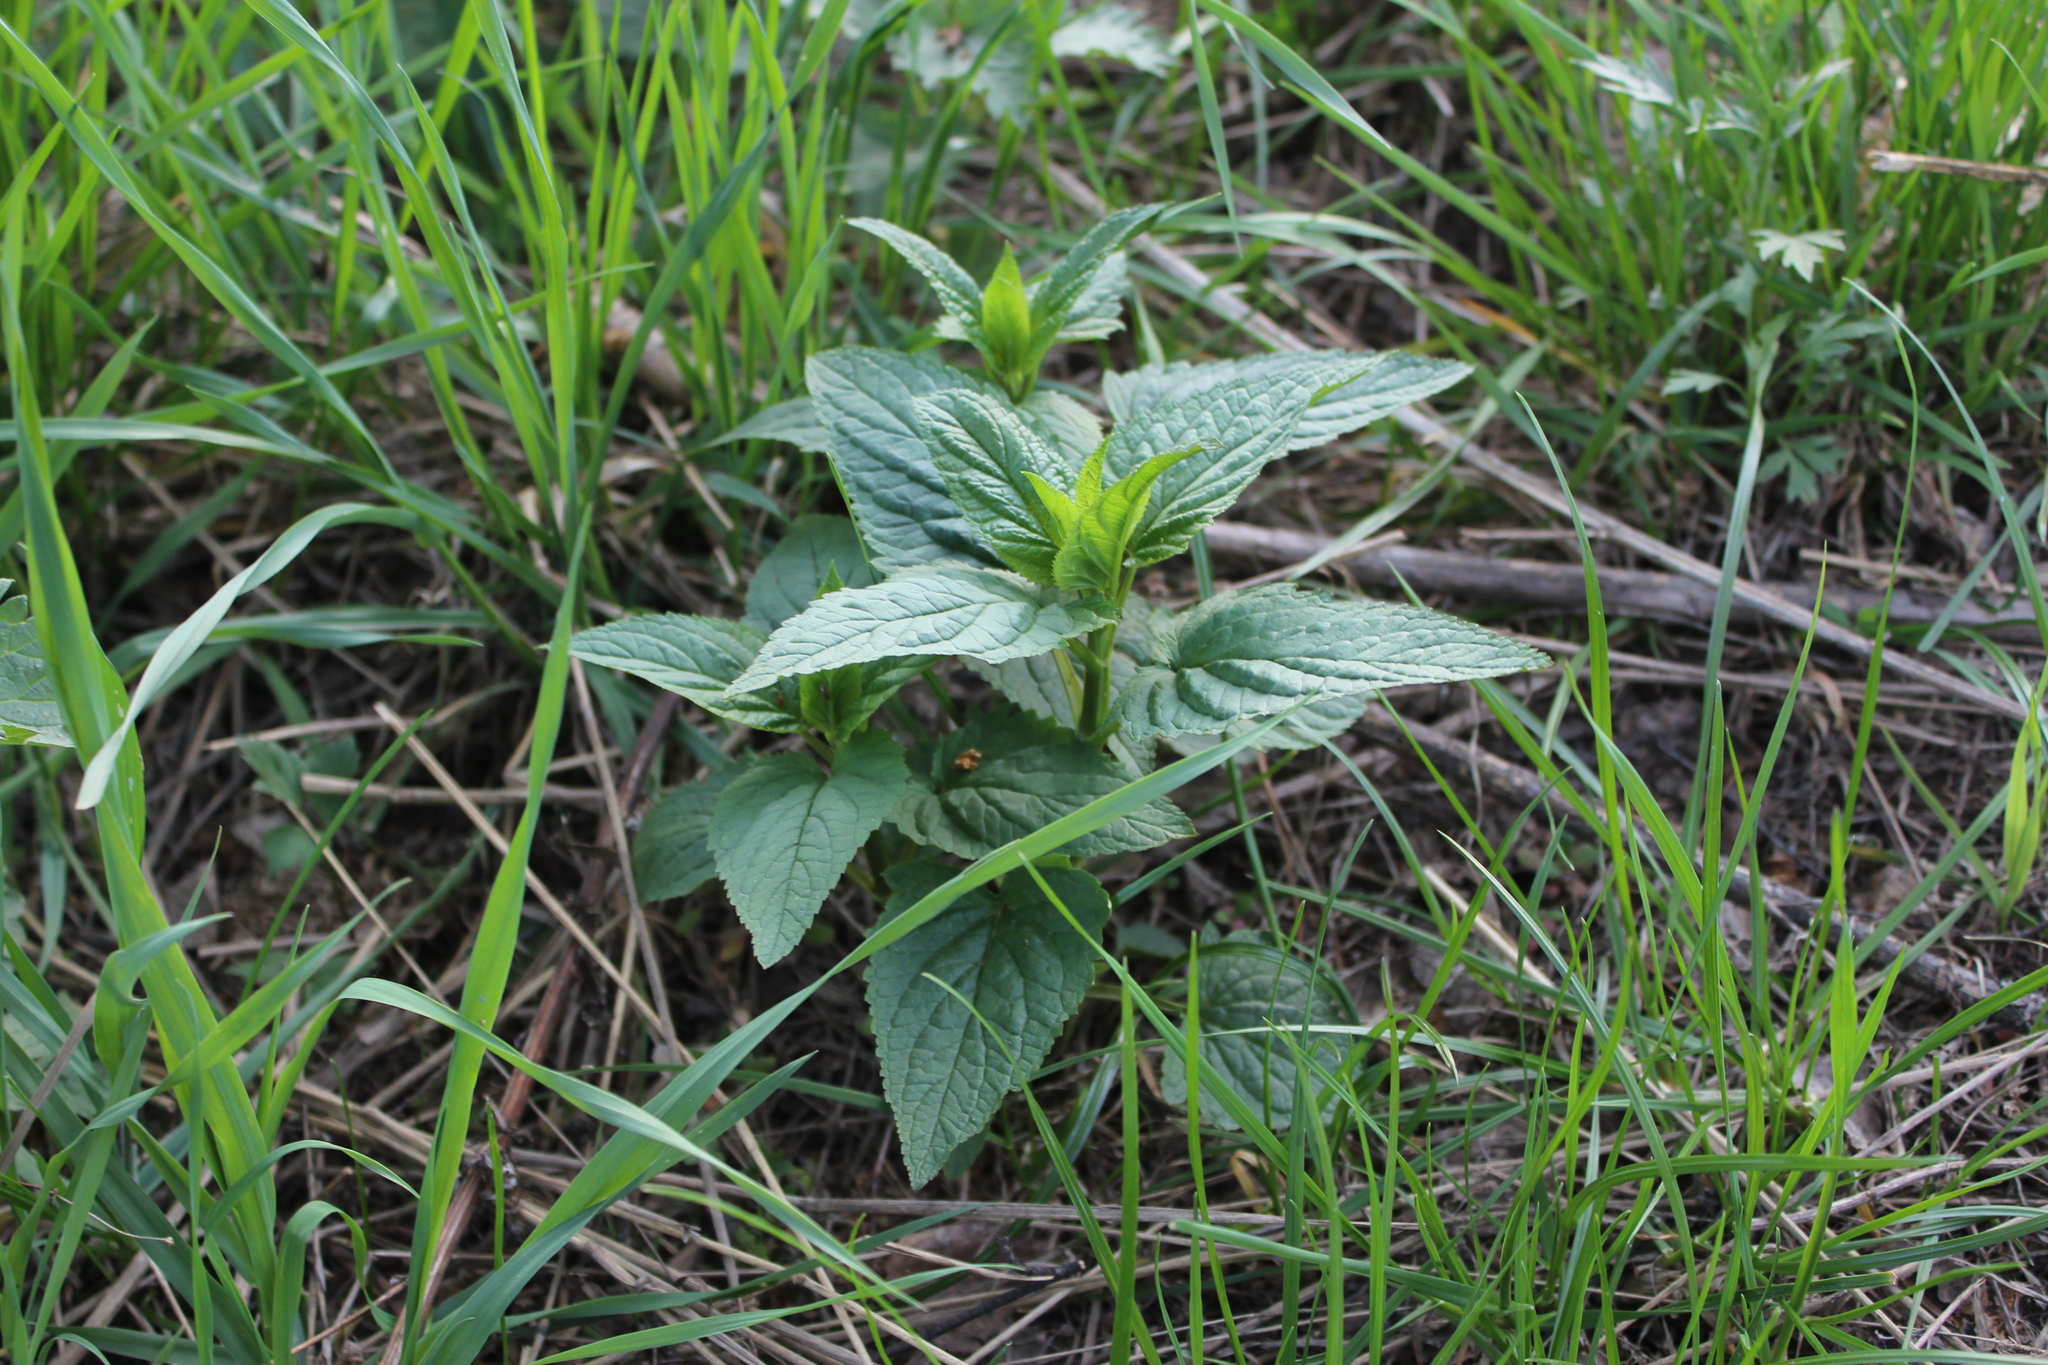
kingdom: Plantae
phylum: Tracheophyta
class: Magnoliopsida
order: Lamiales
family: Scrophulariaceae
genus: Scrophularia
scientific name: Scrophularia nodosa
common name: Common figwort
